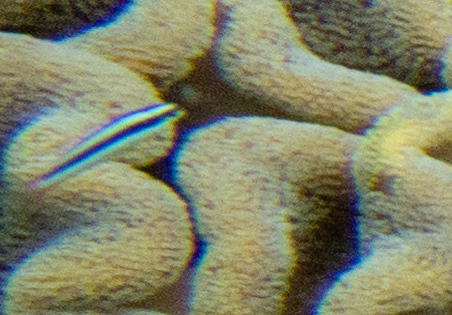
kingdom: Animalia
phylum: Chordata
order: Perciformes
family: Labridae
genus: Thalassoma
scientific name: Thalassoma amblycephalum
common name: Bluehead wrasse
